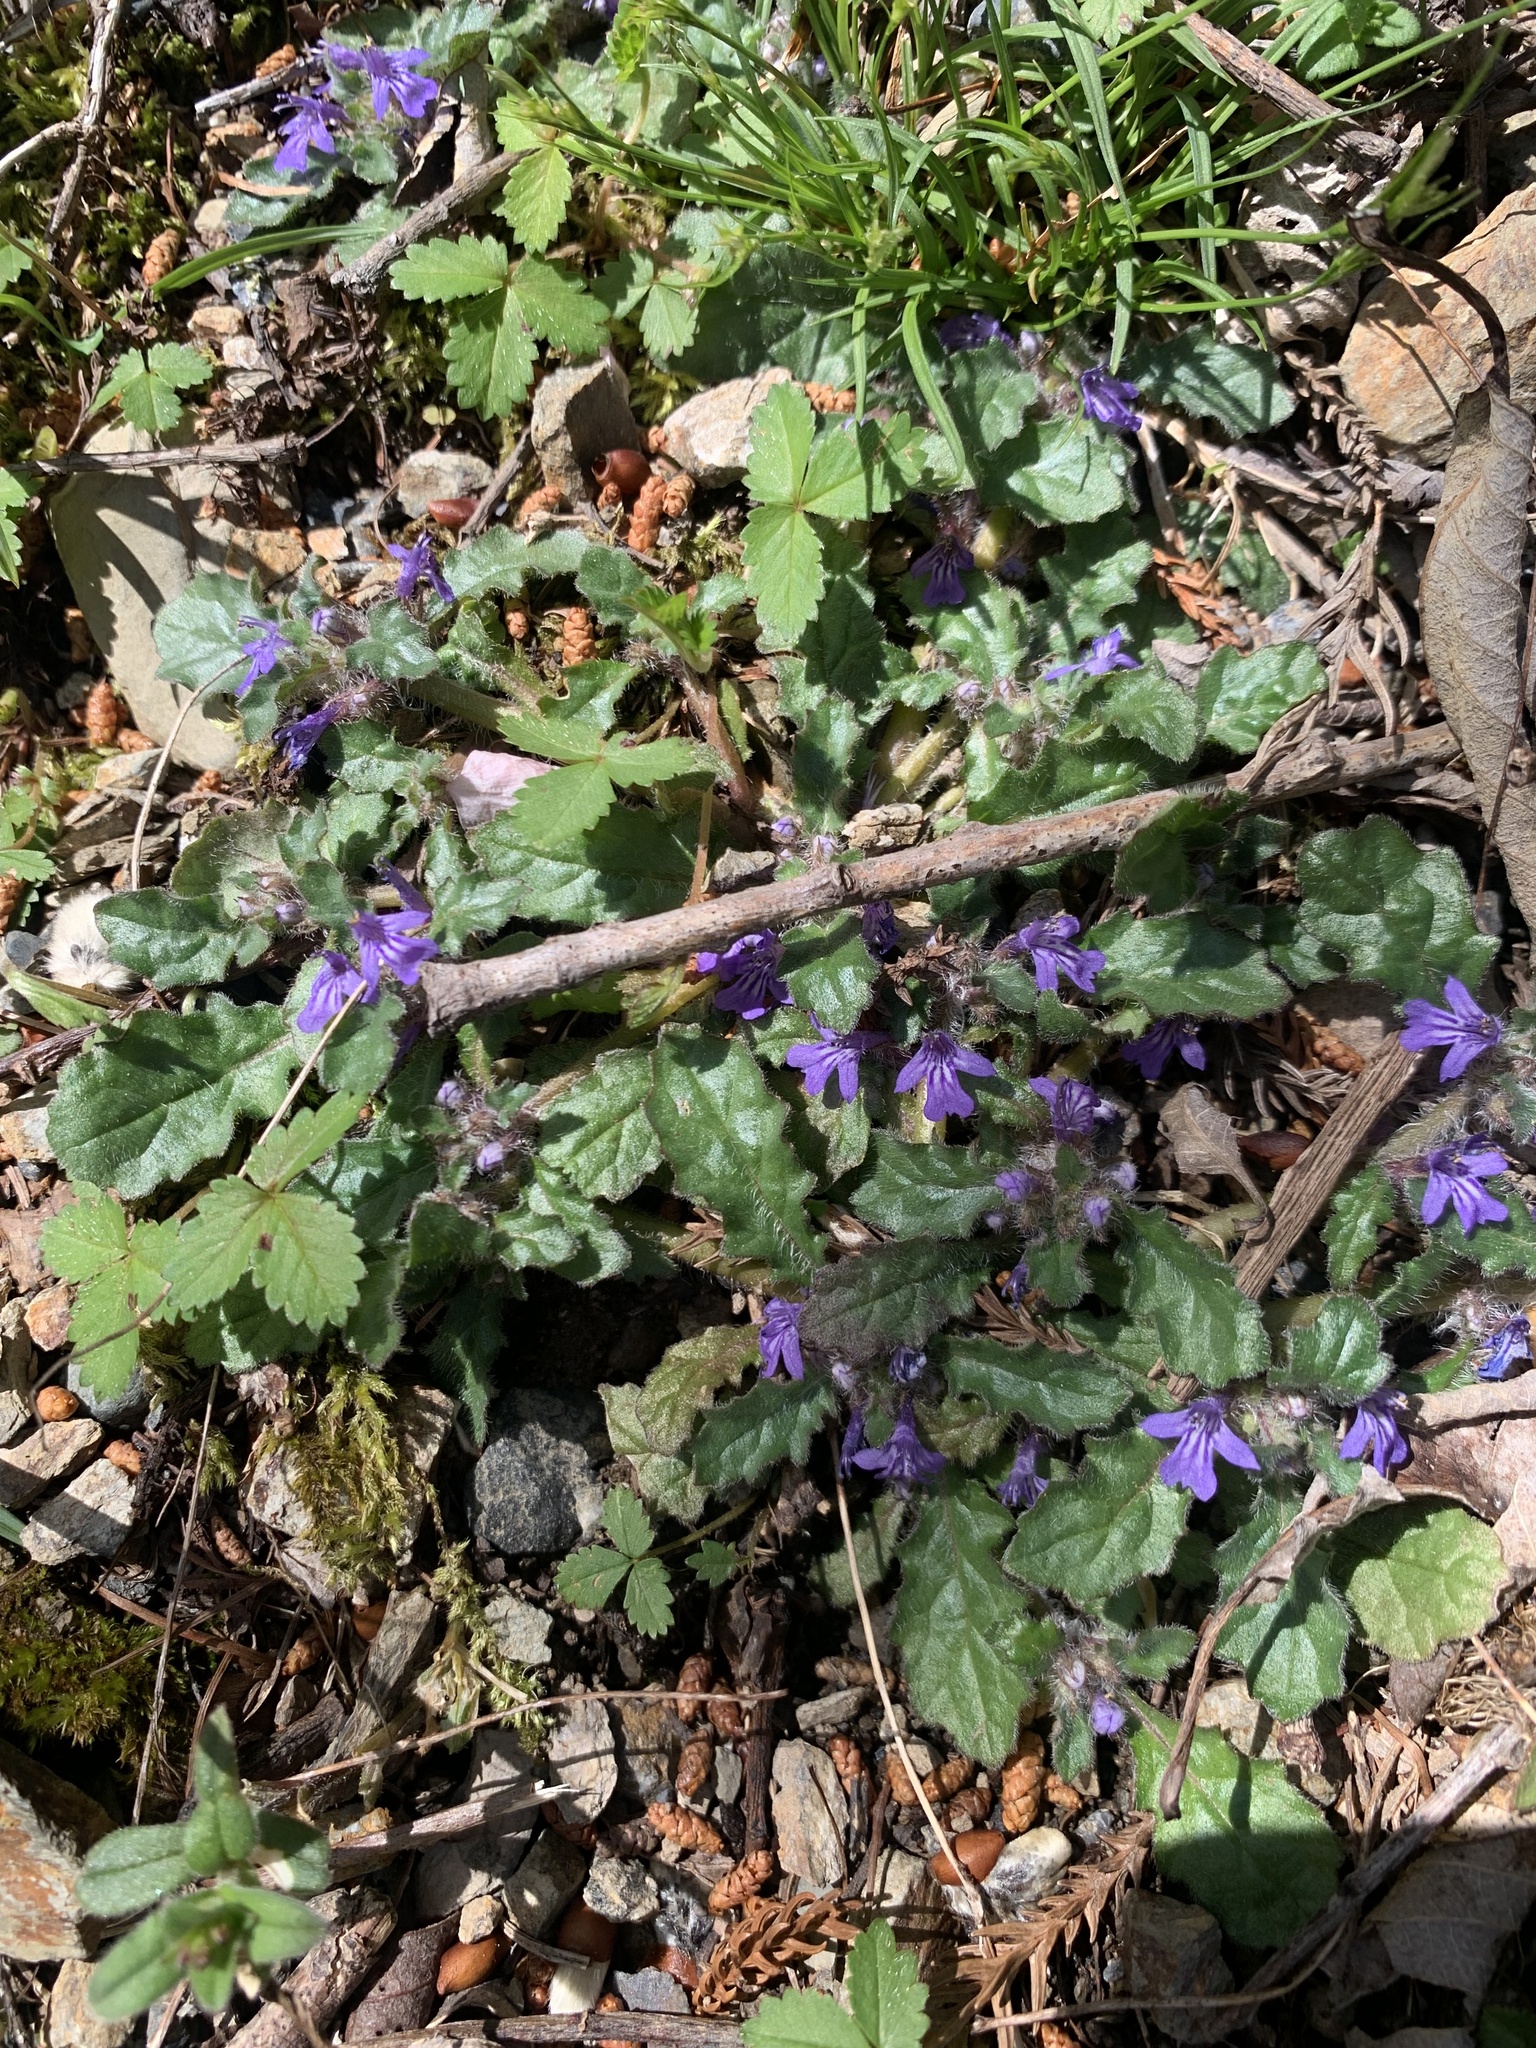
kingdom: Plantae
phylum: Tracheophyta
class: Magnoliopsida
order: Lamiales
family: Lamiaceae
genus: Ajuga
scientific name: Ajuga decumbens
